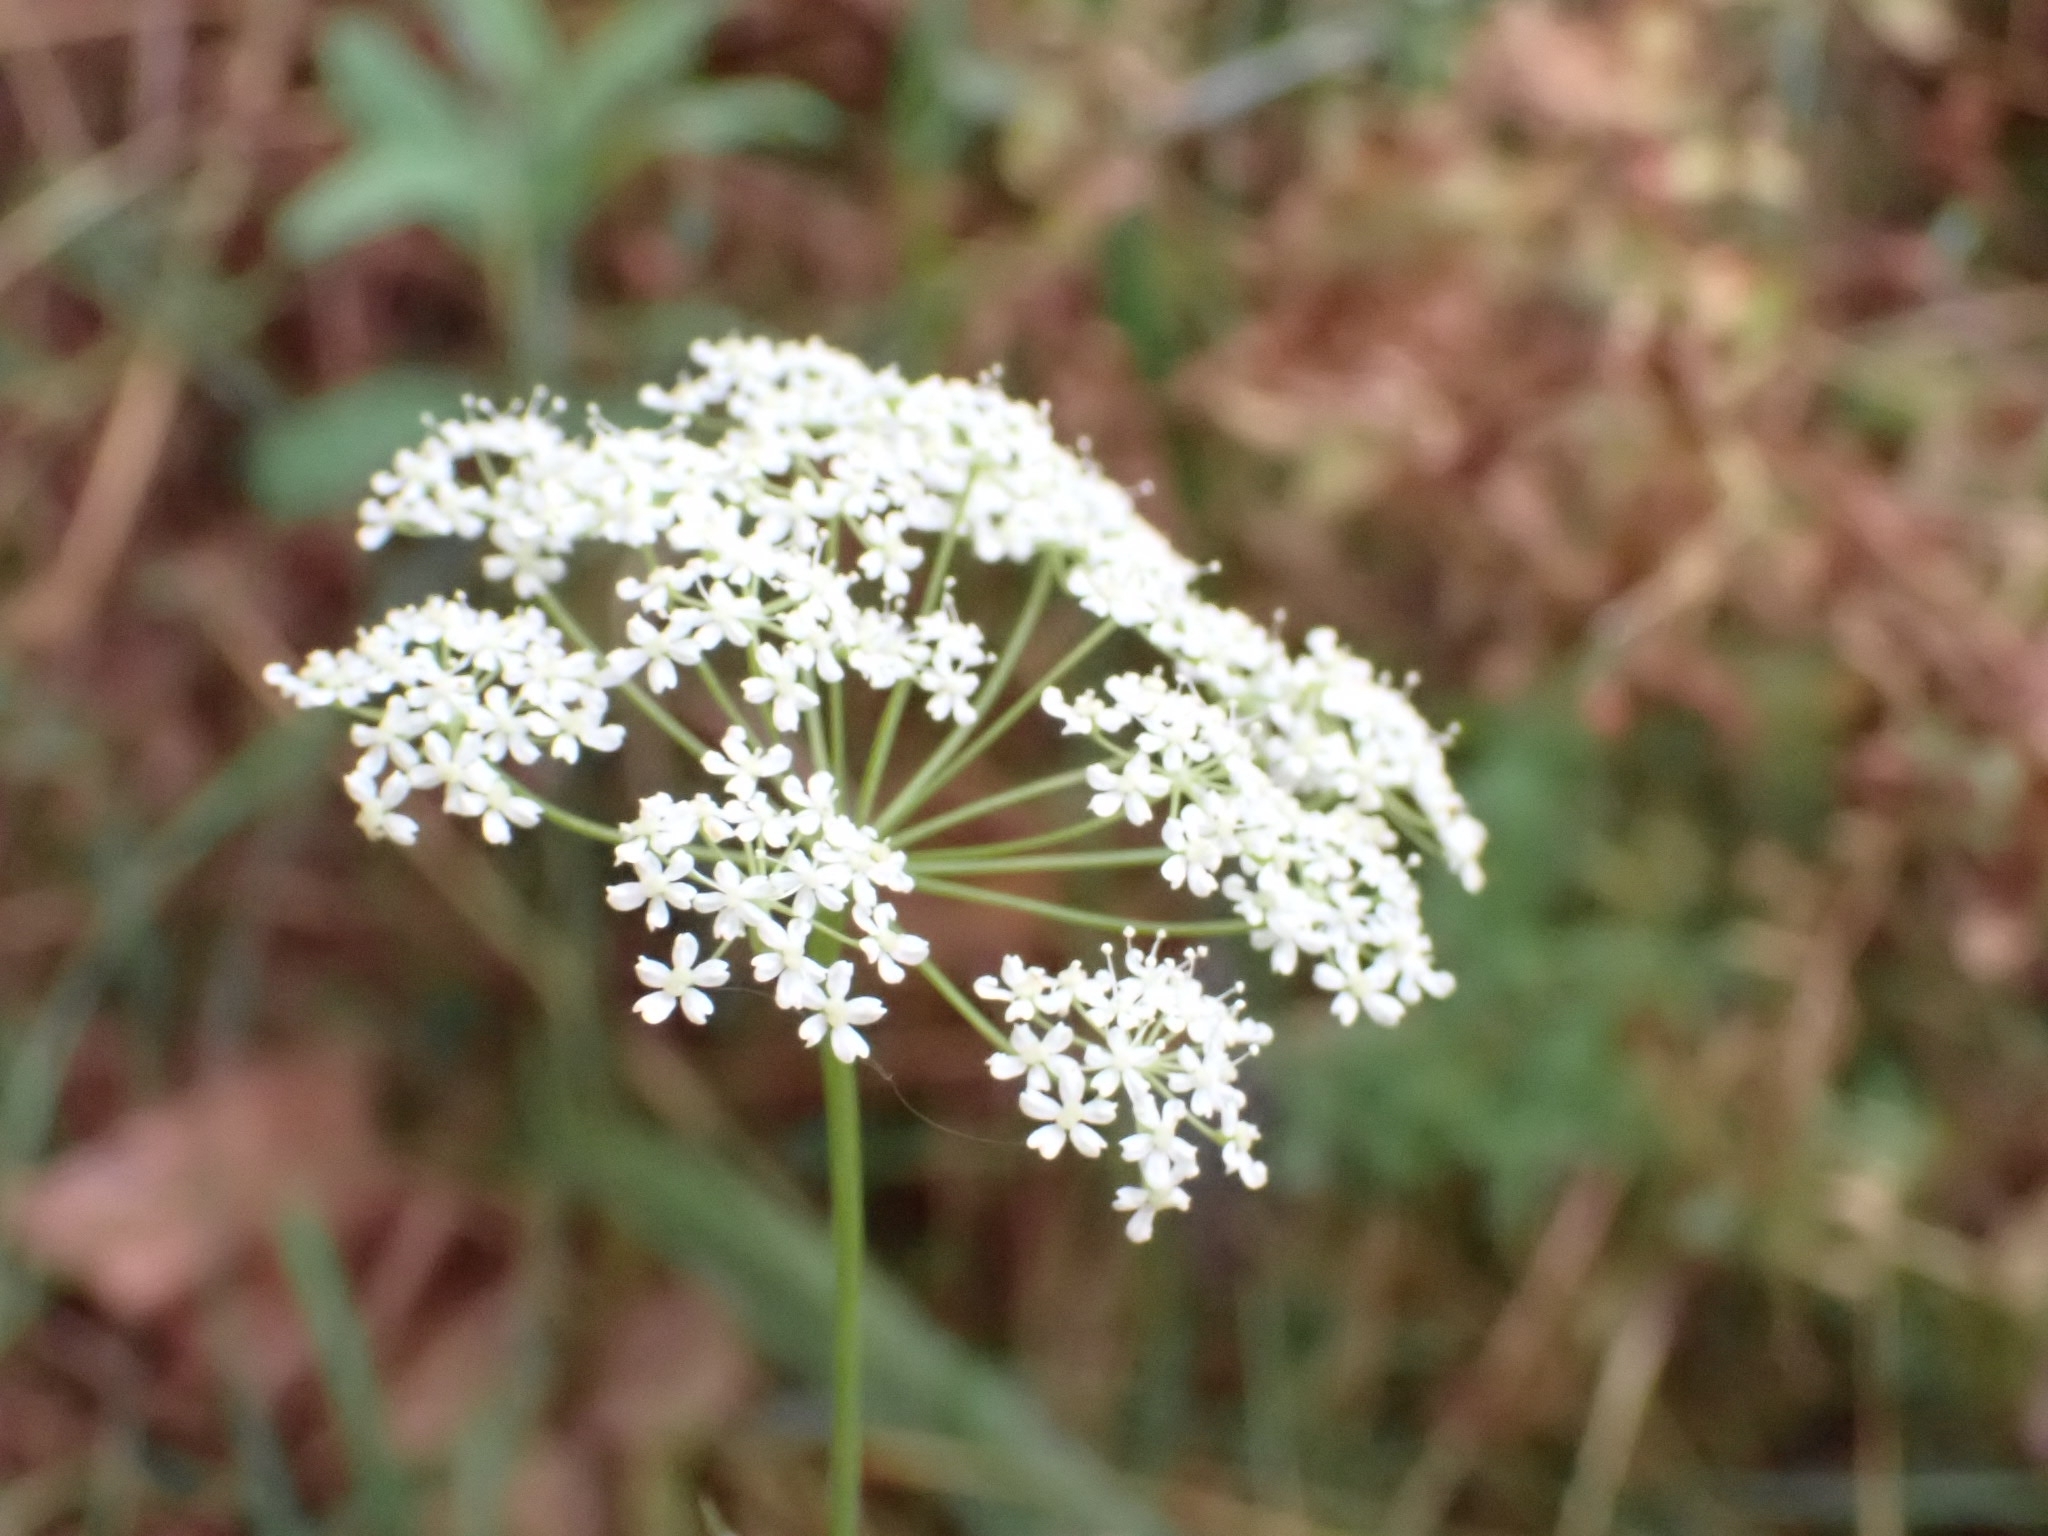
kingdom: Plantae
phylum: Tracheophyta
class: Magnoliopsida
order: Apiales
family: Apiaceae
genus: Pimpinella
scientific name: Pimpinella saxifraga
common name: Burnet-saxifrage
